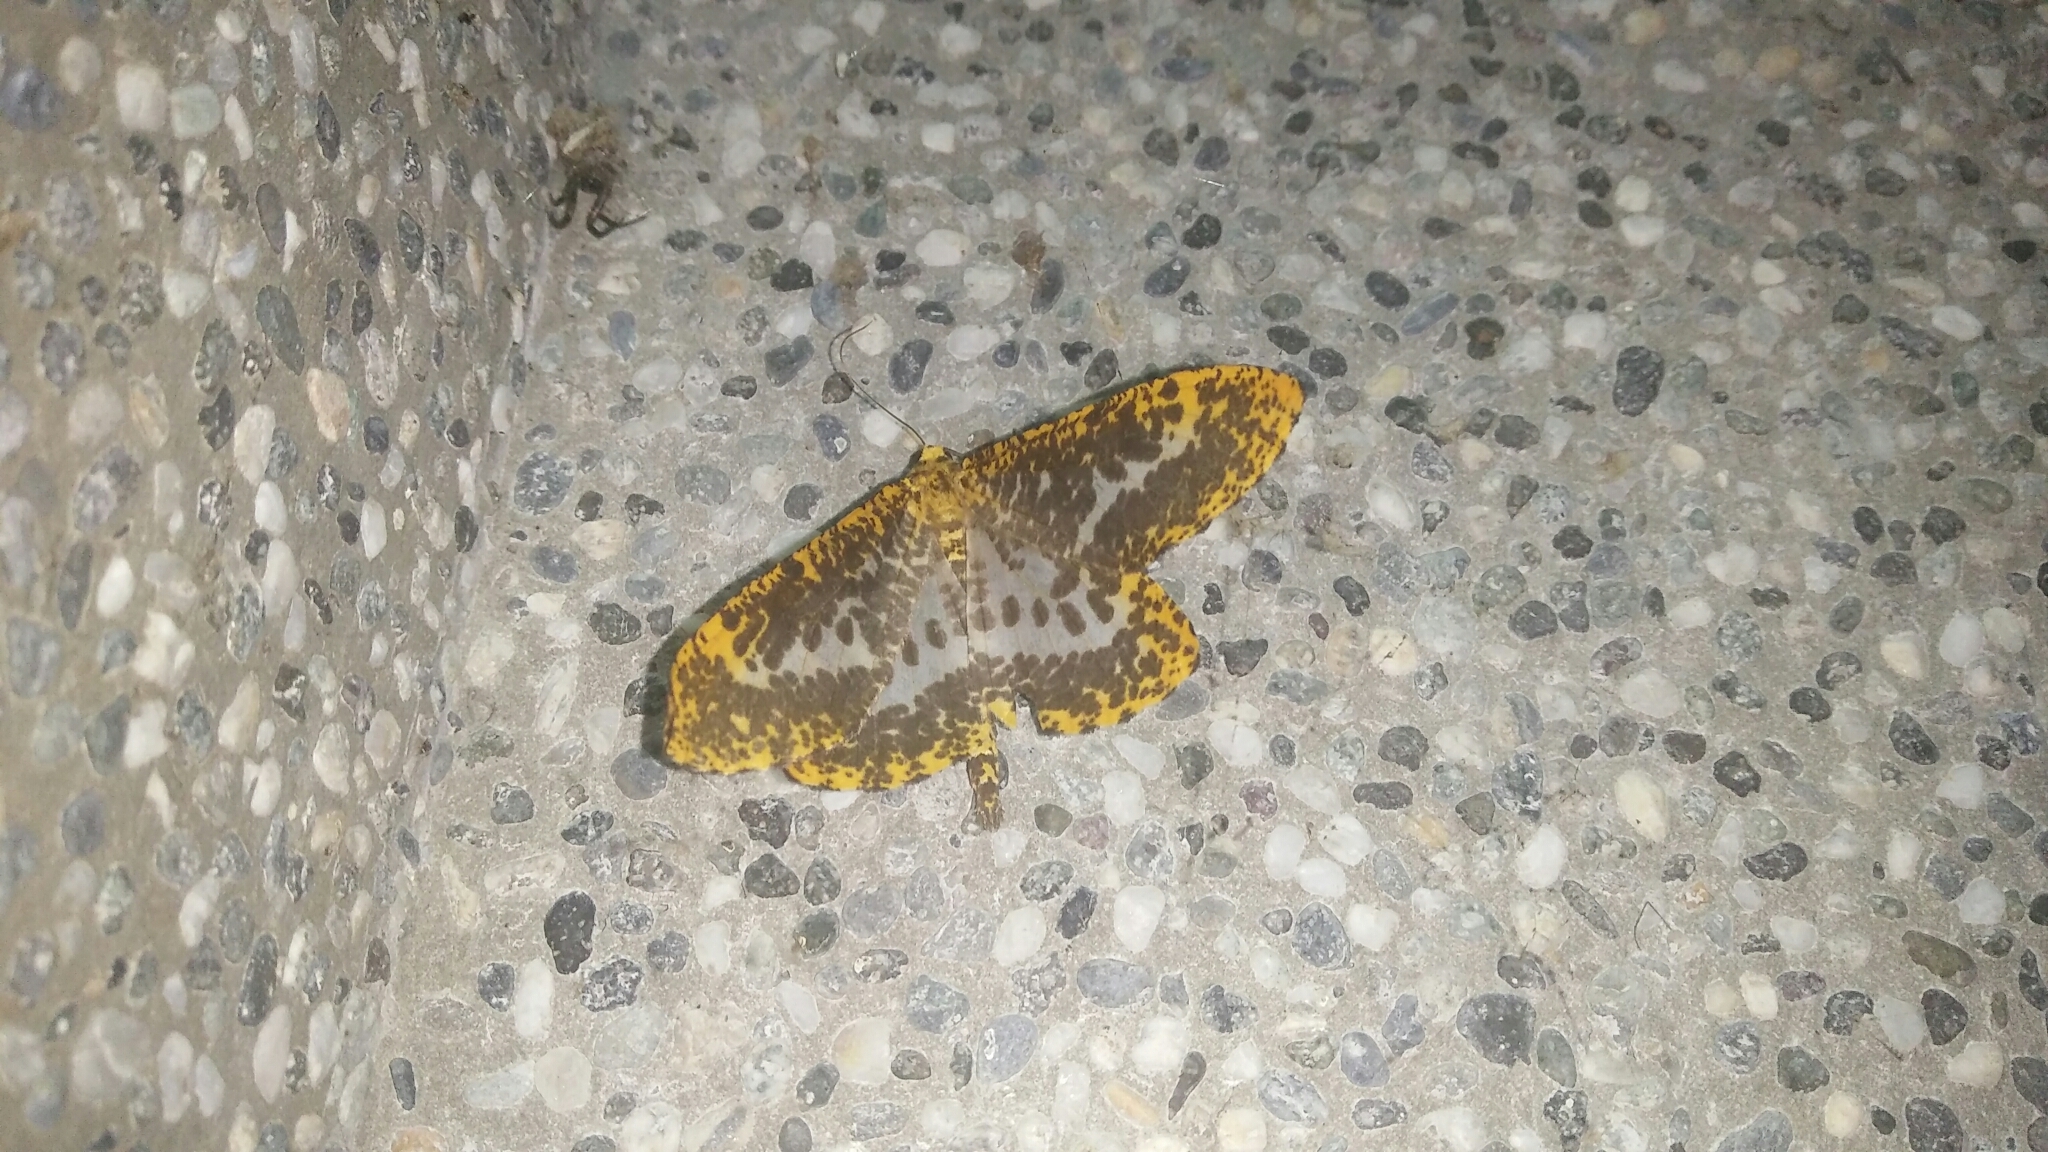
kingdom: Animalia
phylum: Arthropoda
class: Insecta
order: Lepidoptera
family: Geometridae
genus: Obeidia
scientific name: Obeidia Epobeidia lucifera
